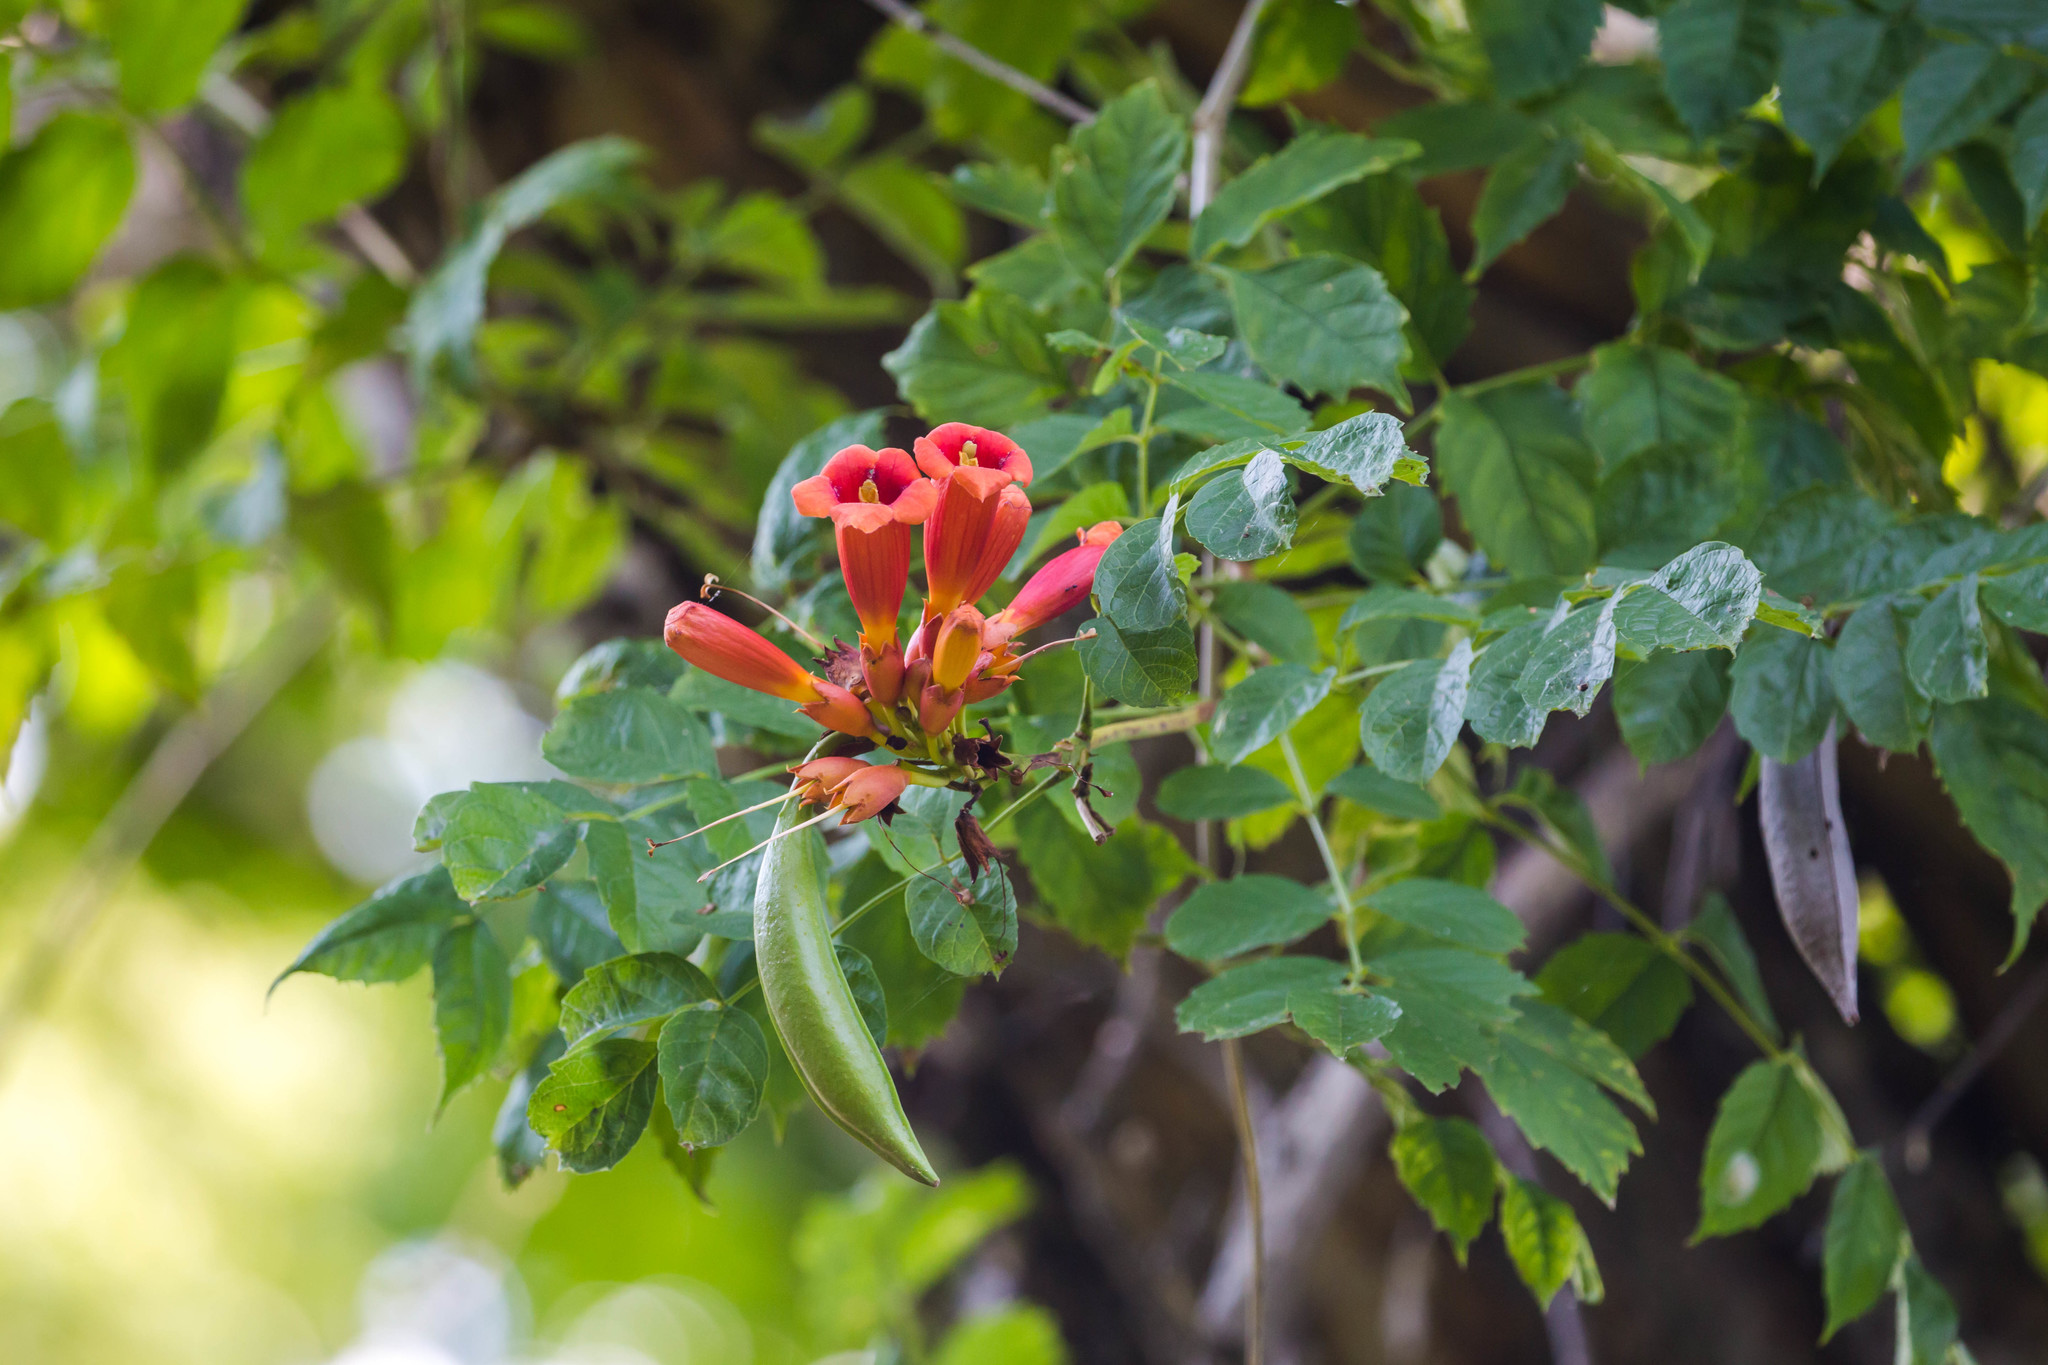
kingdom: Plantae
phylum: Tracheophyta
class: Magnoliopsida
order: Lamiales
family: Bignoniaceae
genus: Campsis
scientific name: Campsis radicans
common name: Trumpet-creeper
